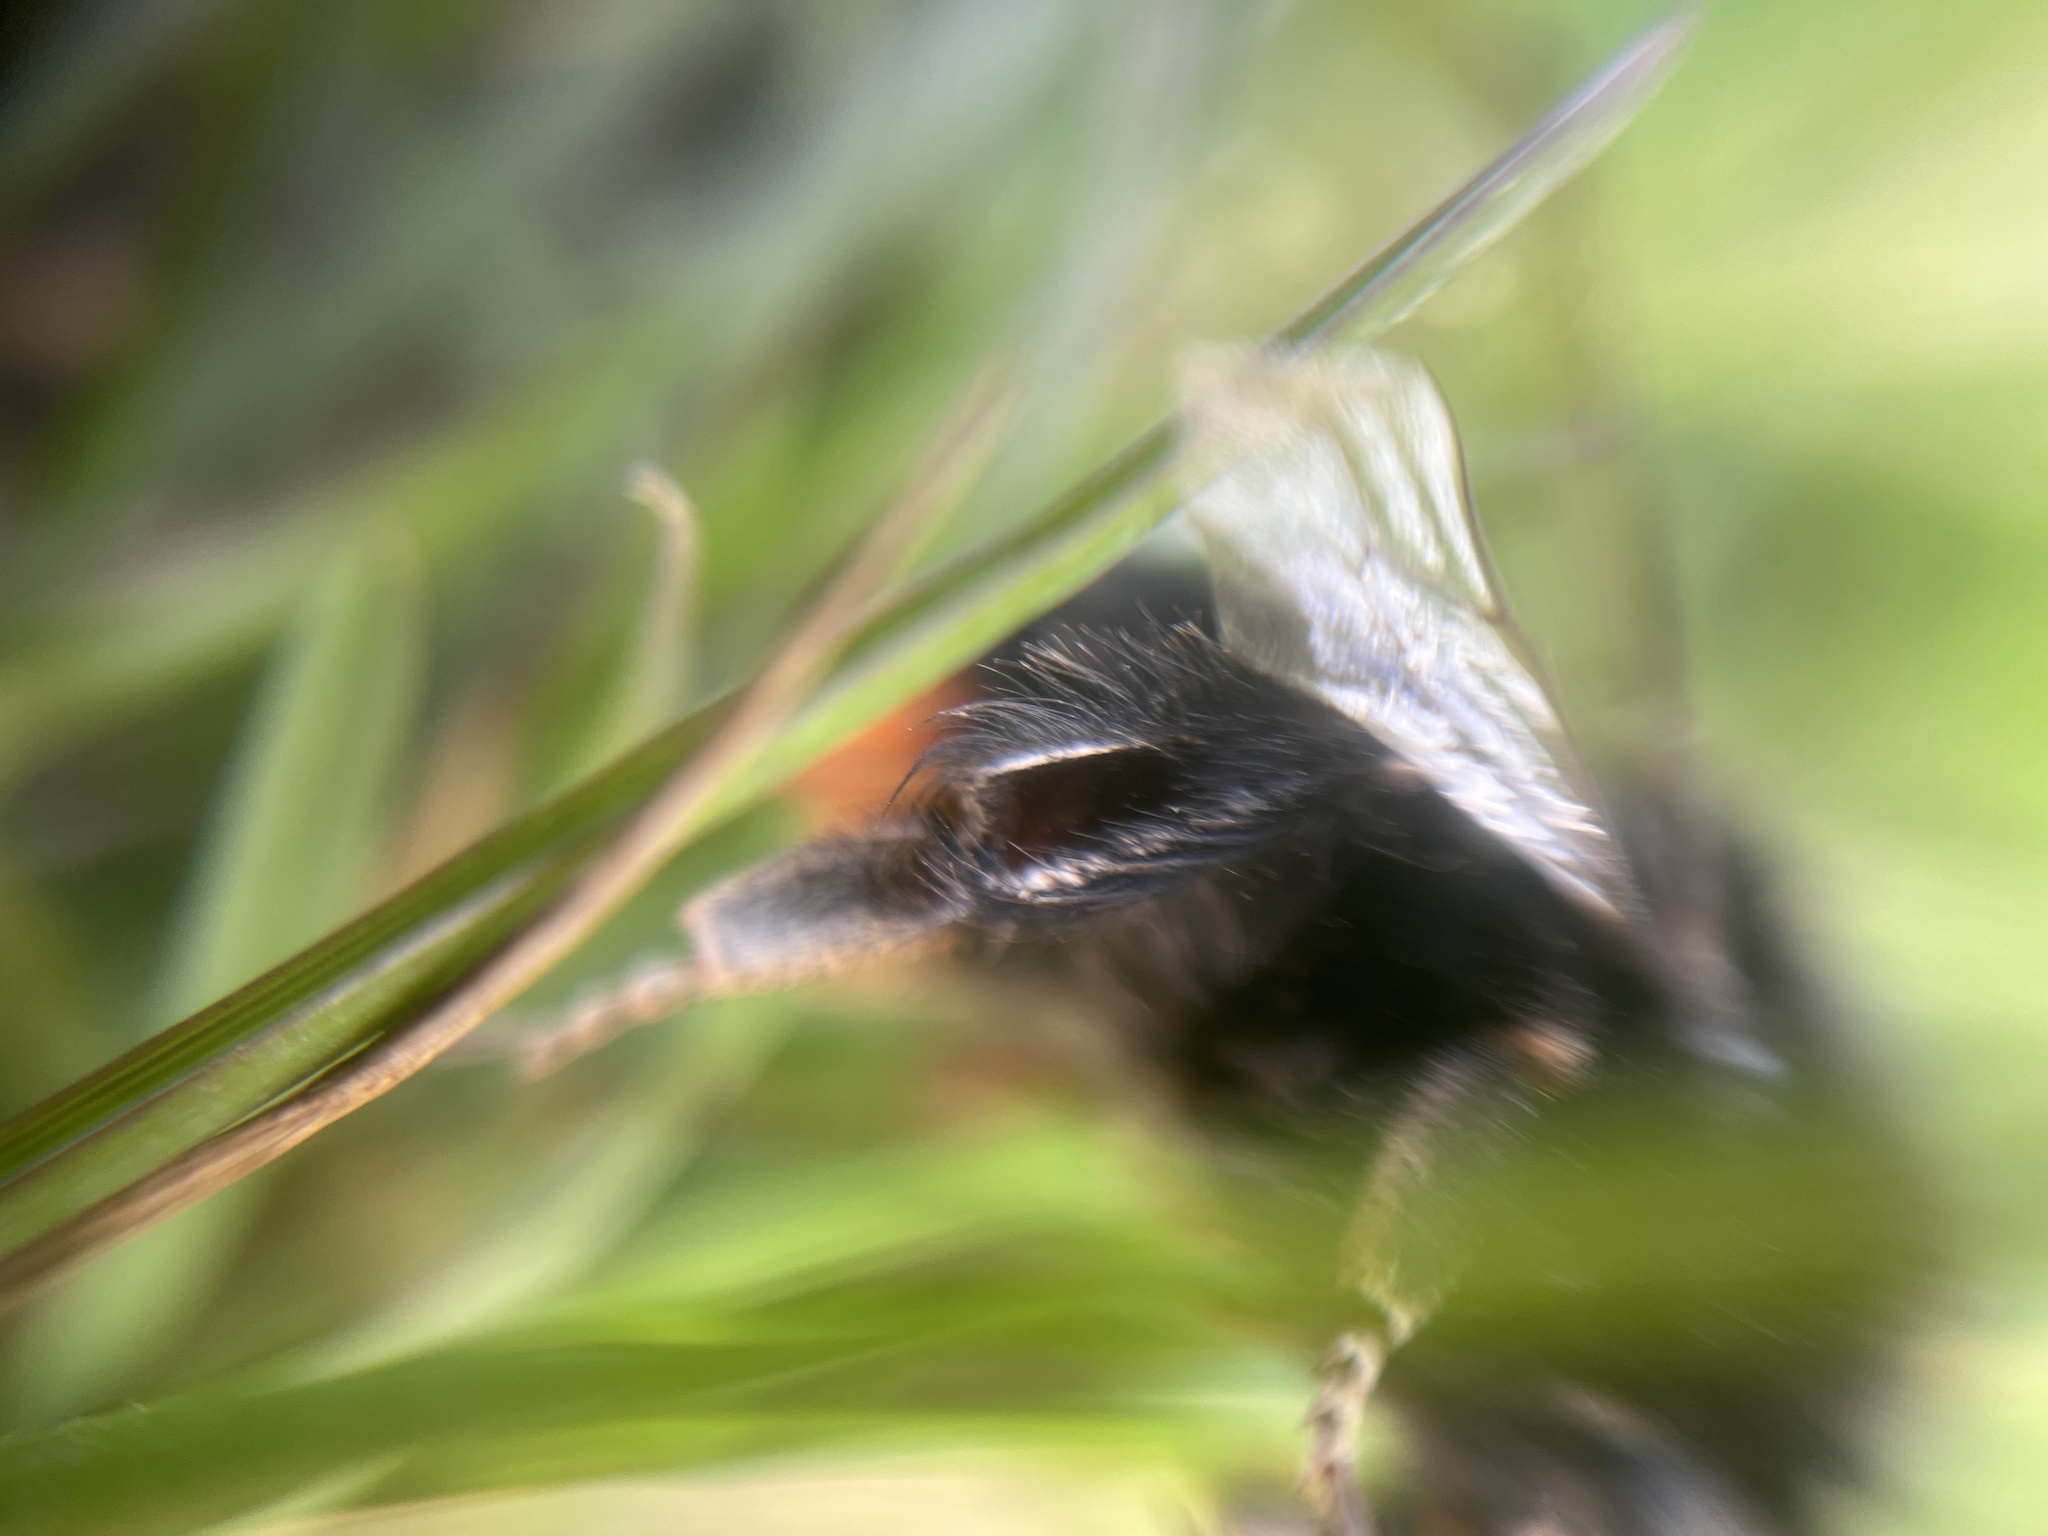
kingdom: Animalia
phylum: Arthropoda
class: Insecta
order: Hymenoptera
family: Apidae
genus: Bombus
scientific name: Bombus lapidarius
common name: Large red-tailed humble-bee
